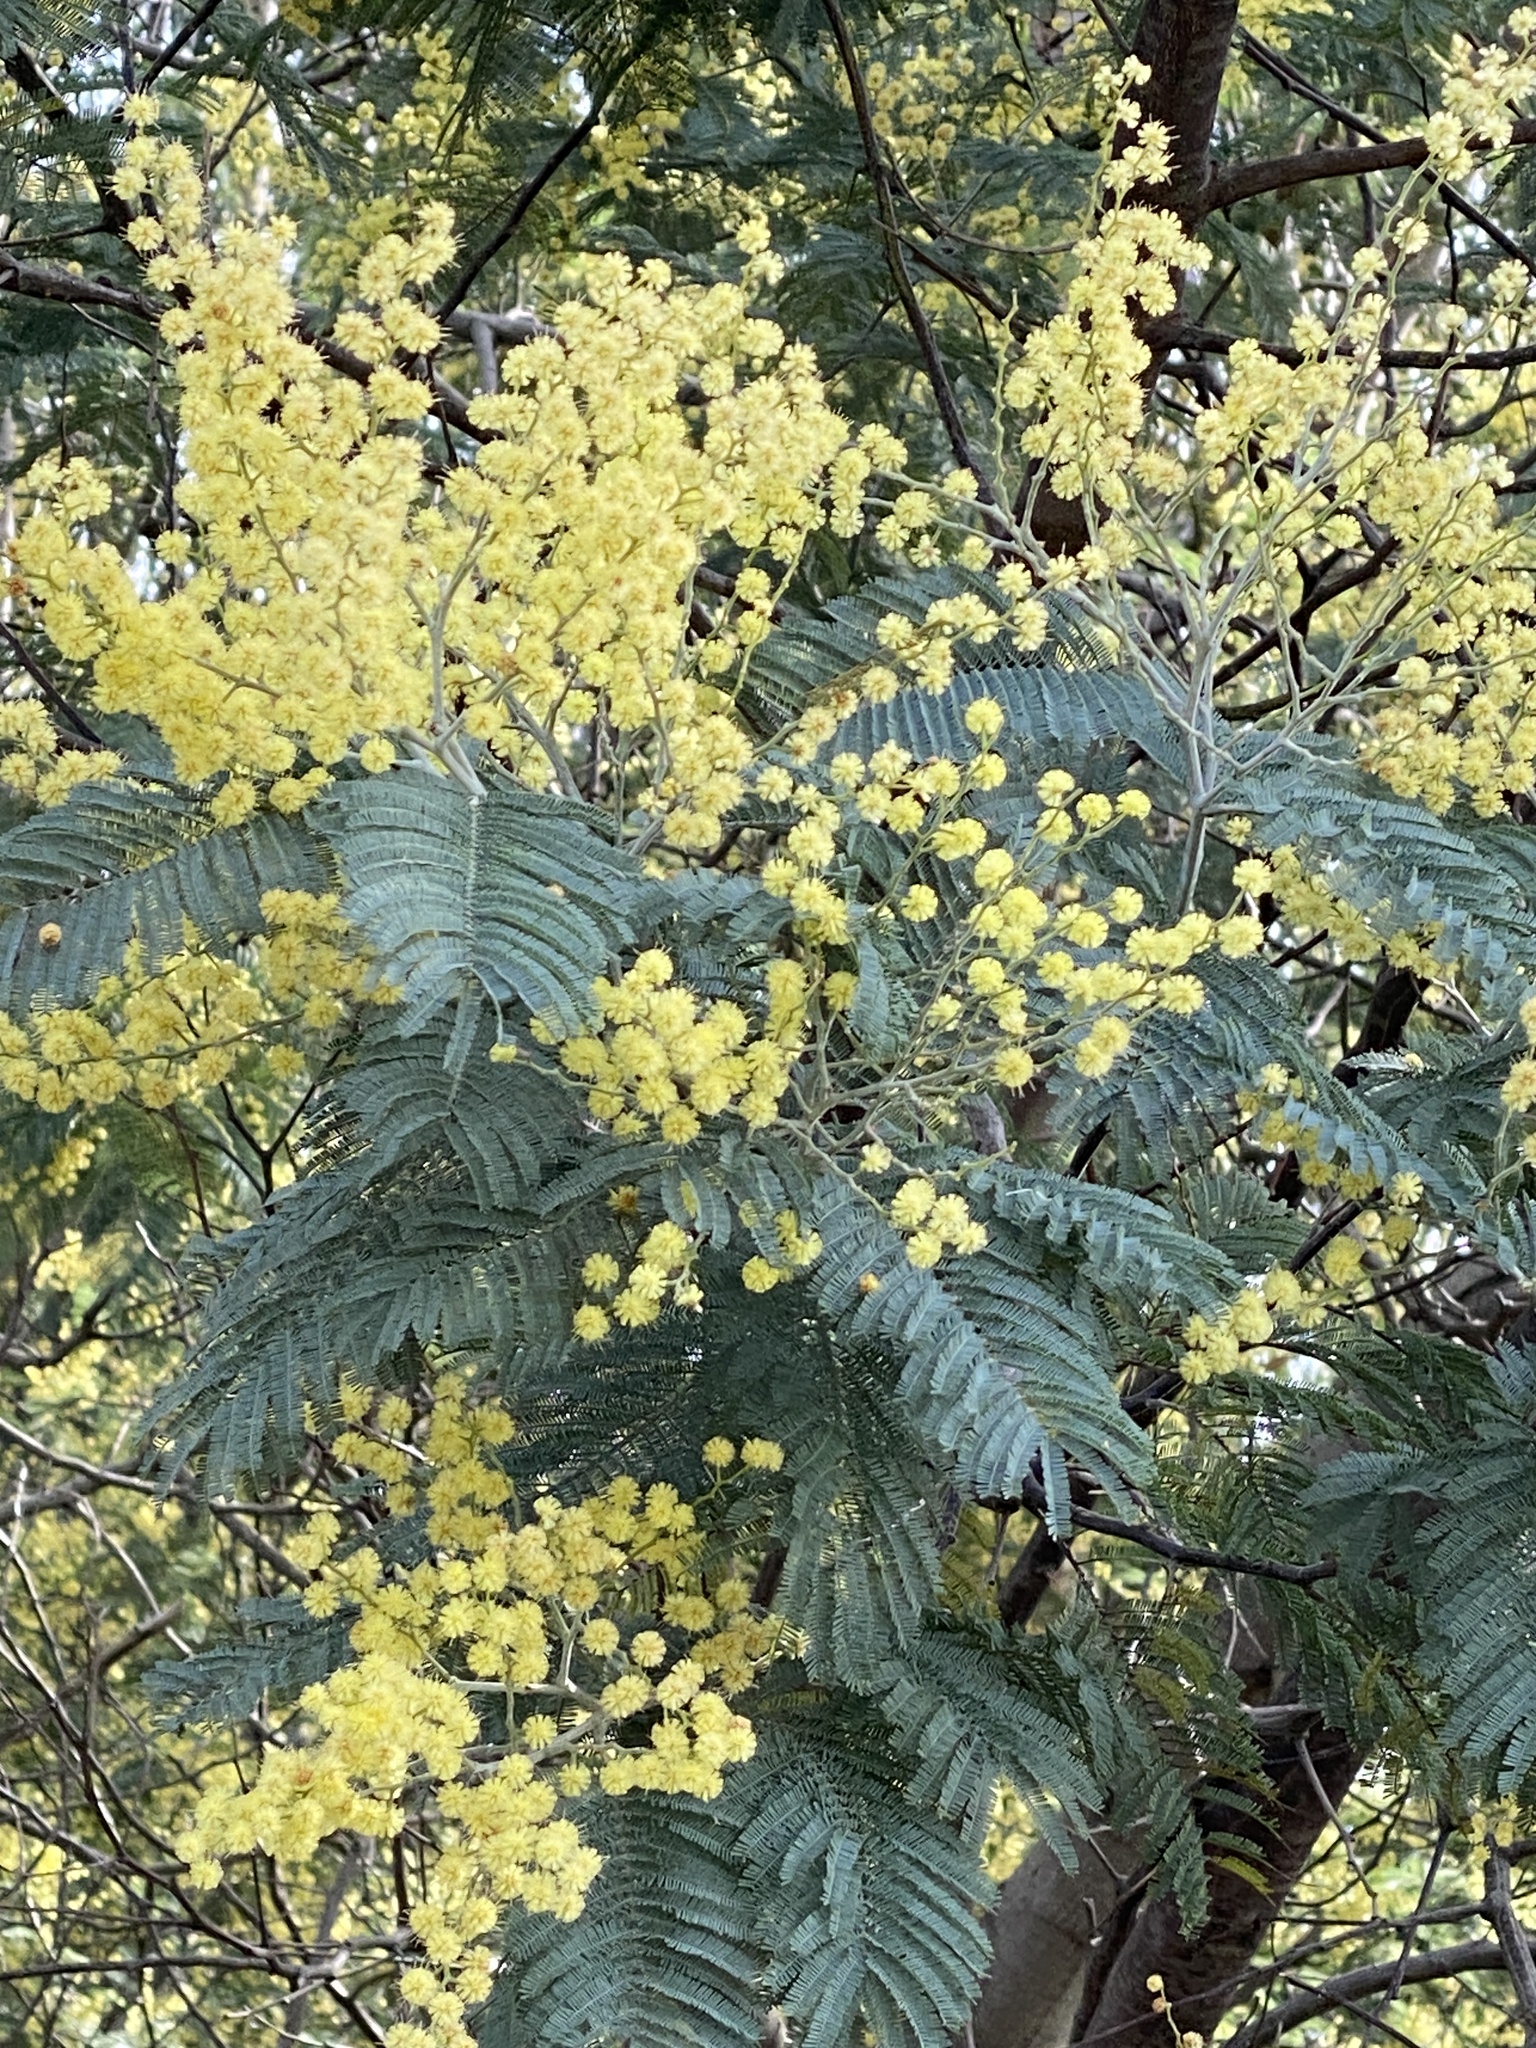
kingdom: Plantae
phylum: Tracheophyta
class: Magnoliopsida
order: Fabales
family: Fabaceae
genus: Acacia
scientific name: Acacia dealbata
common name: Silver wattle
